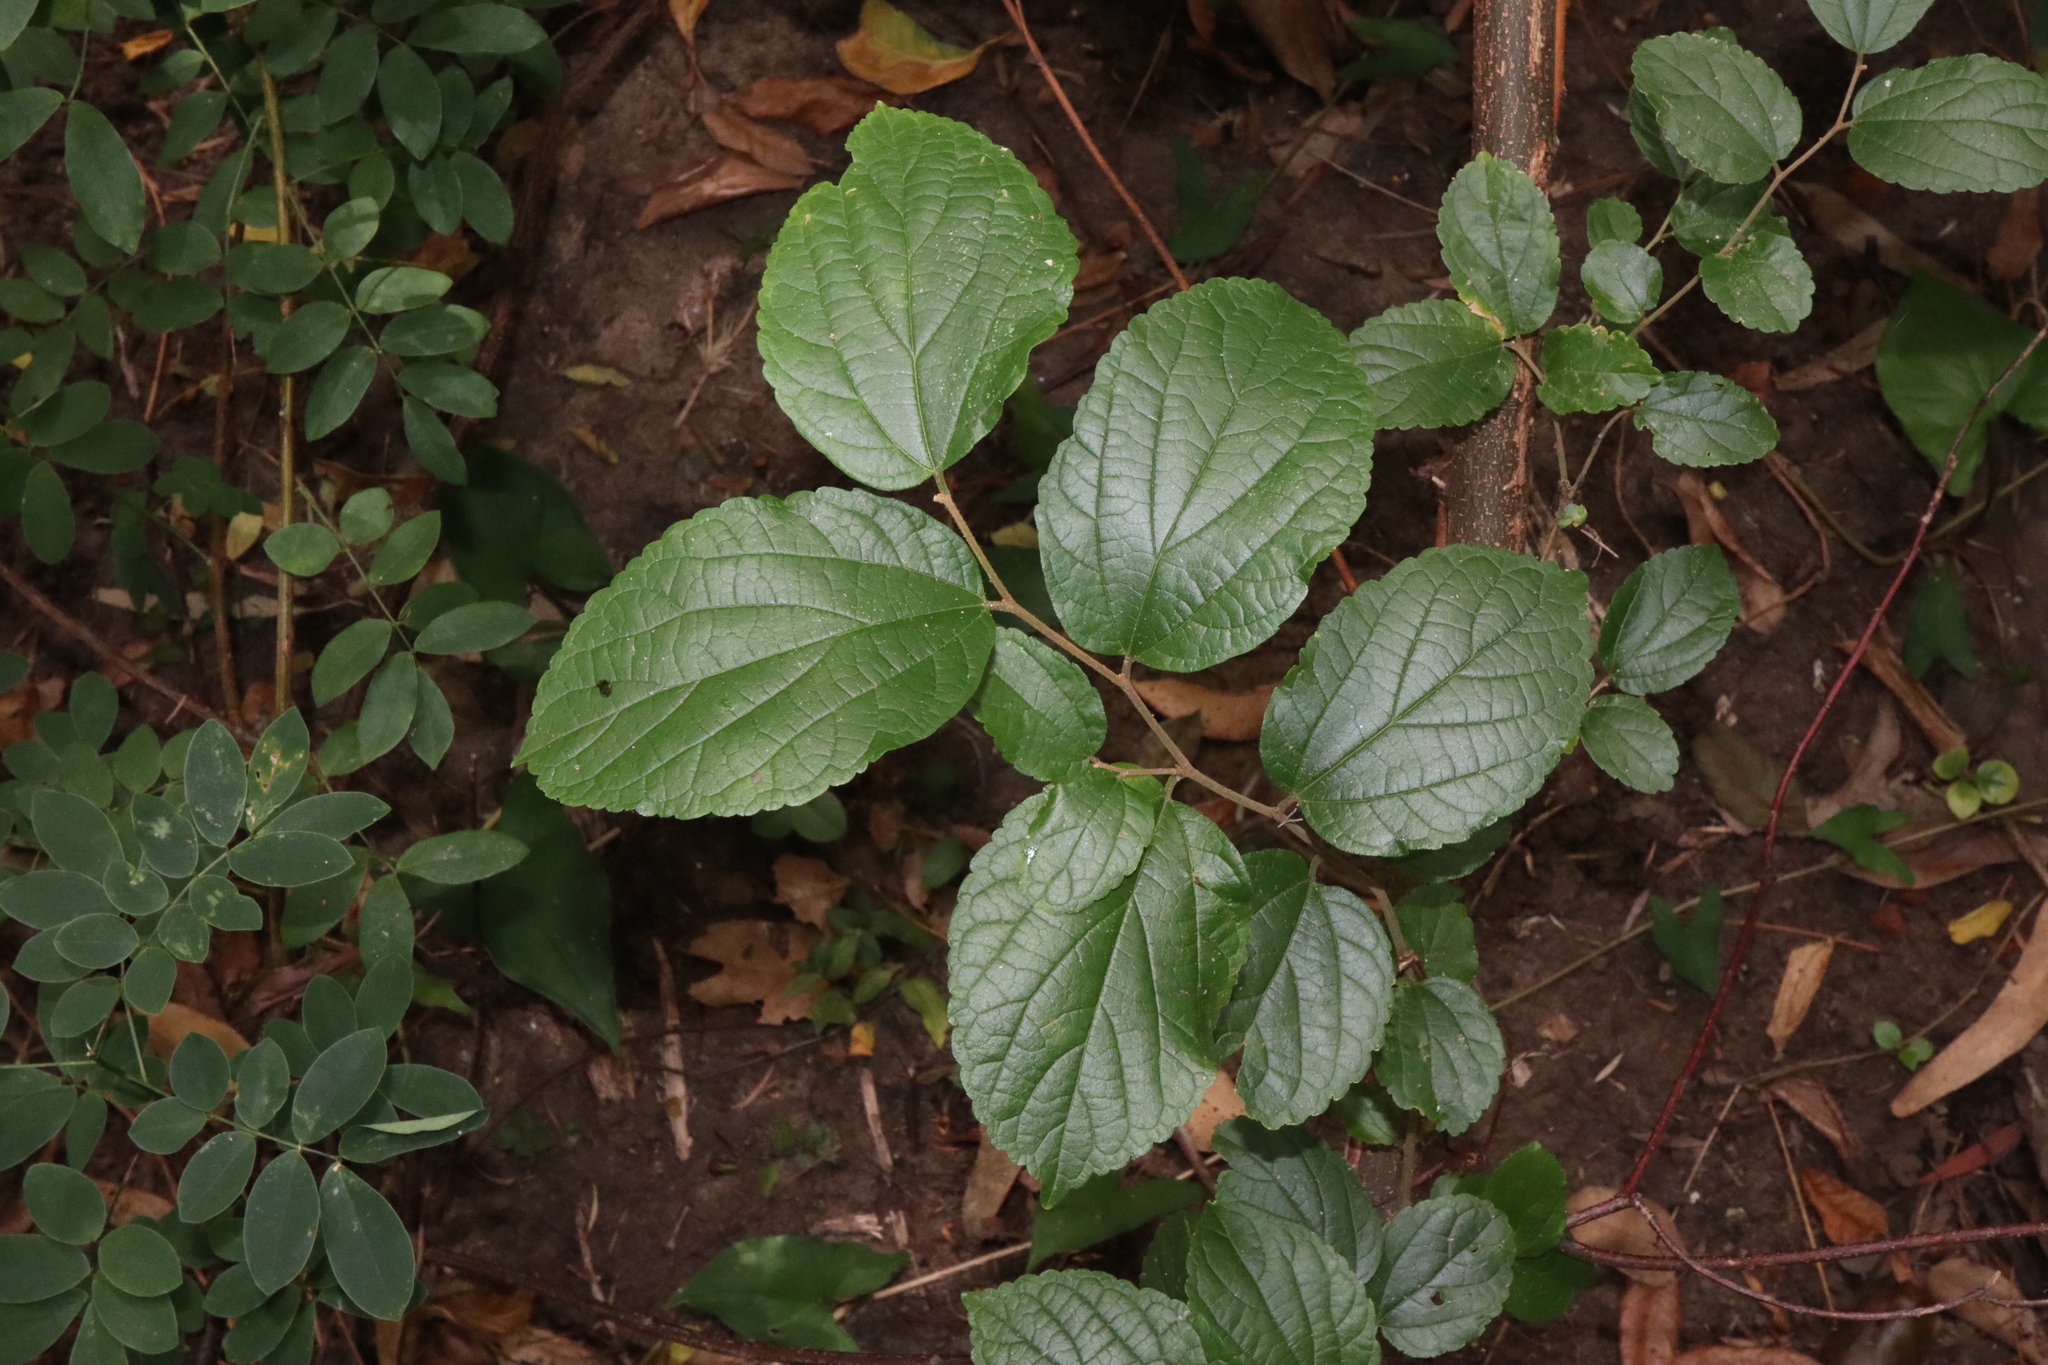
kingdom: Plantae
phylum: Tracheophyta
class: Magnoliopsida
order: Rosales
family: Cannabaceae
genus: Celtis
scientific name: Celtis sinensis
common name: Chinese hackberry
